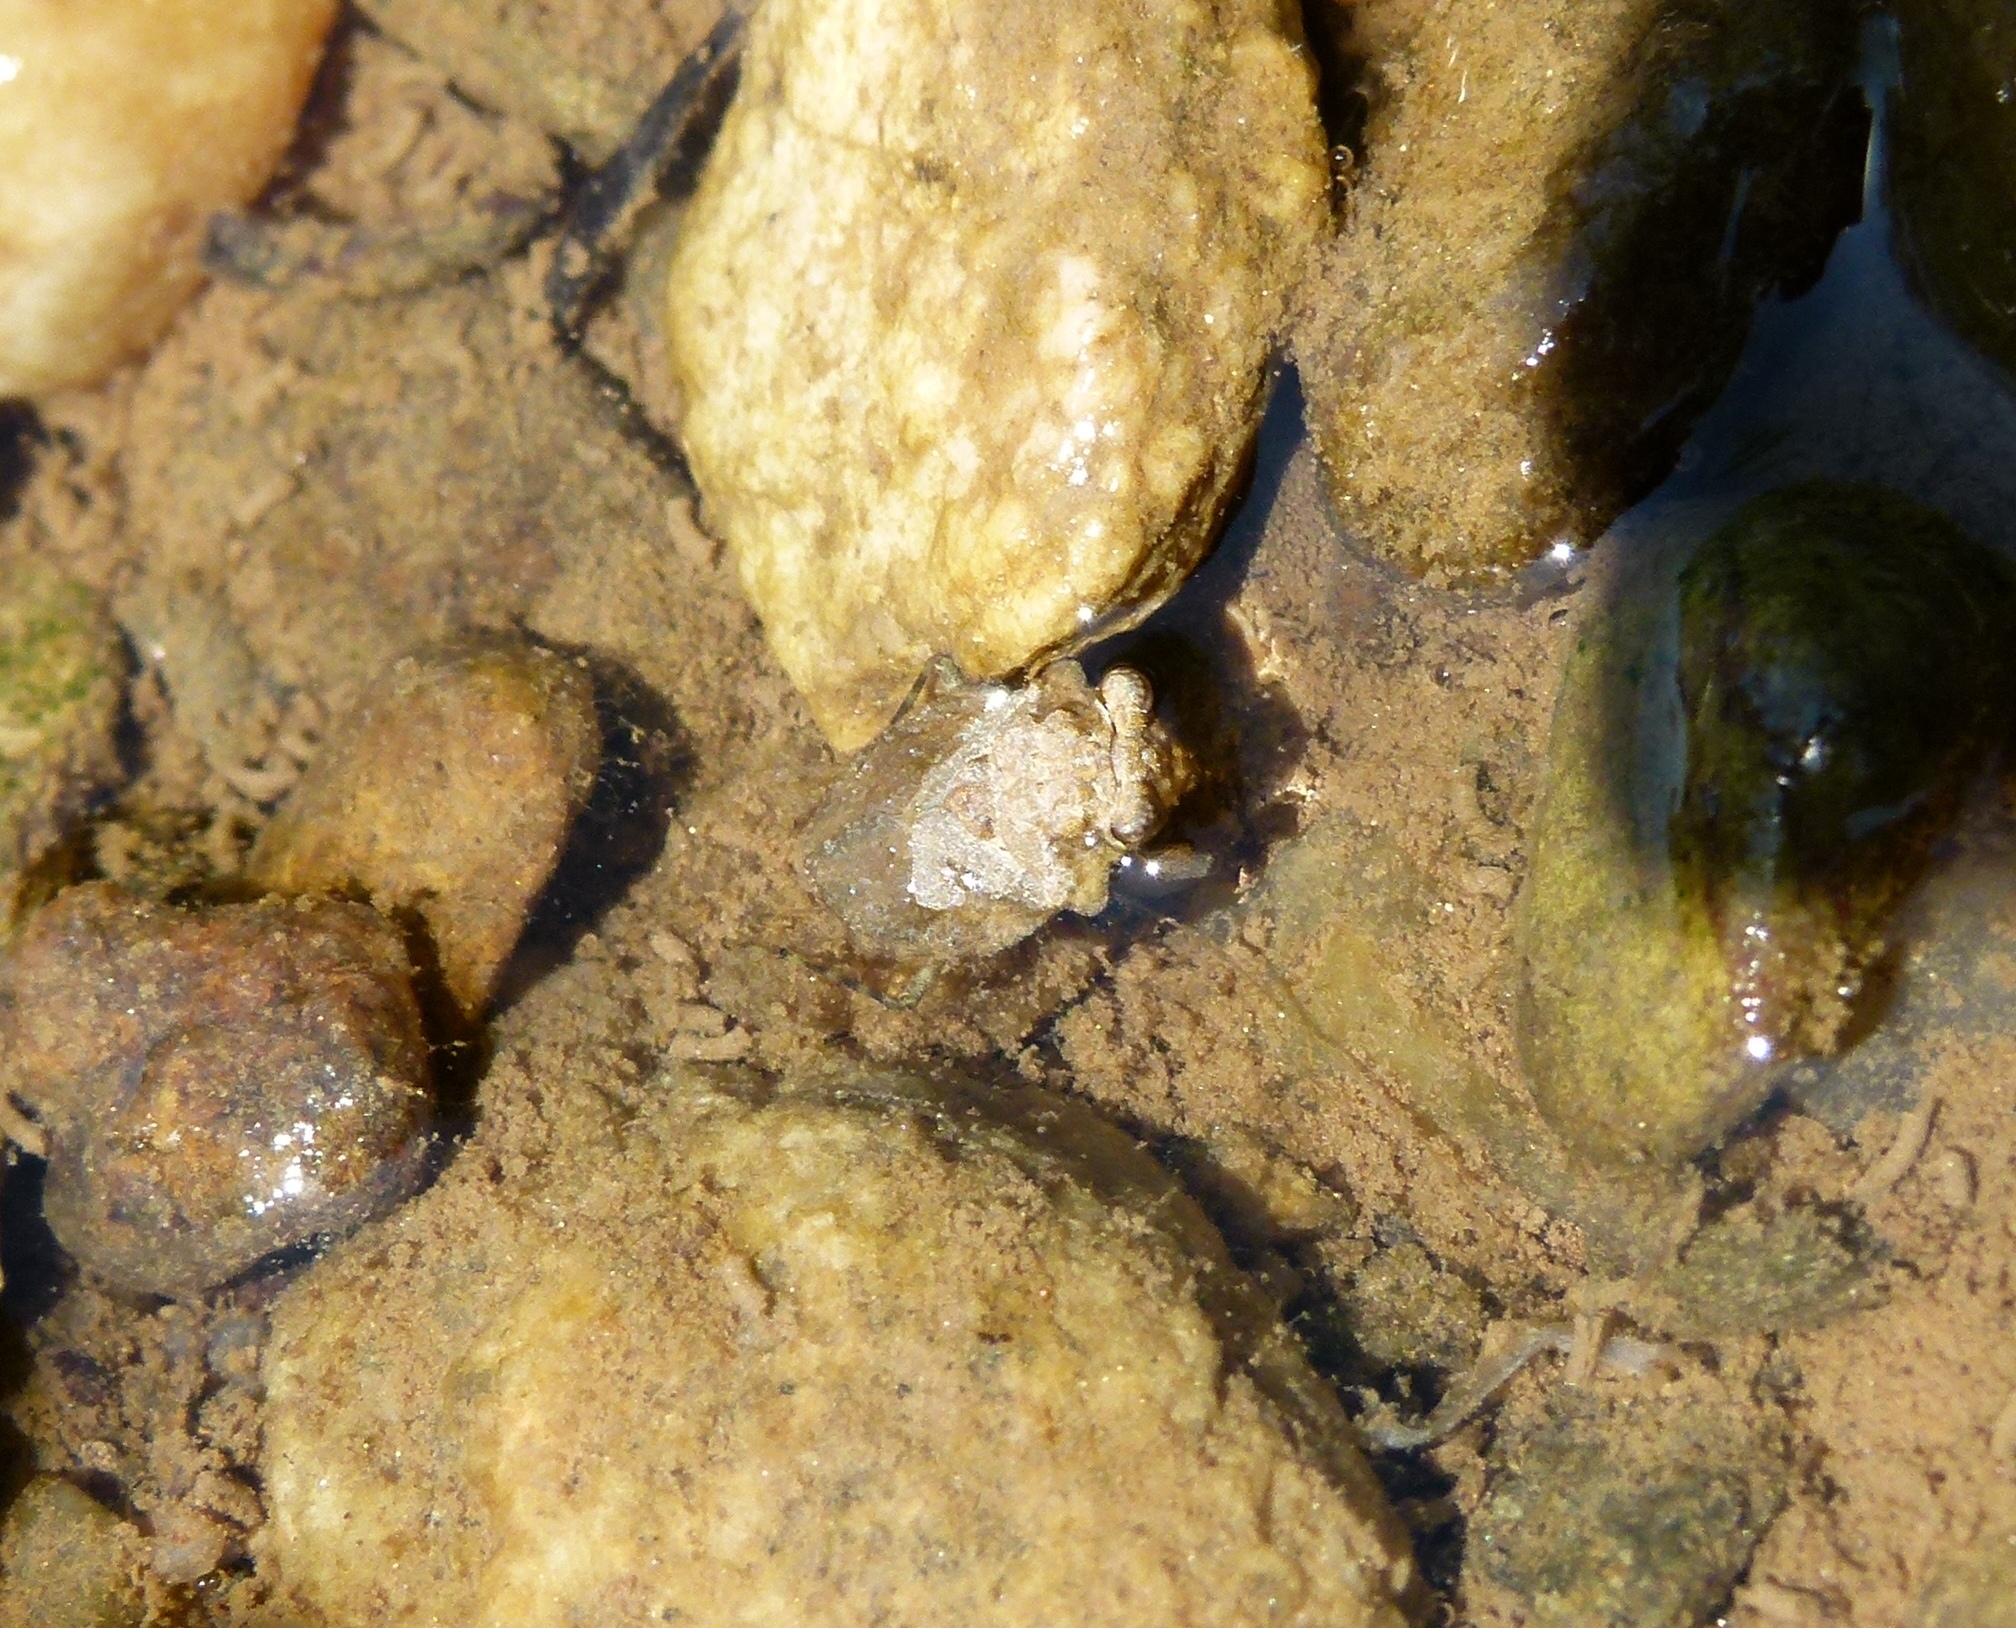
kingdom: Animalia
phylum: Arthropoda
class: Insecta
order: Hemiptera
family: Gelastocoridae
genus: Gelastocoris
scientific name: Gelastocoris oculatus
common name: Toad bug
